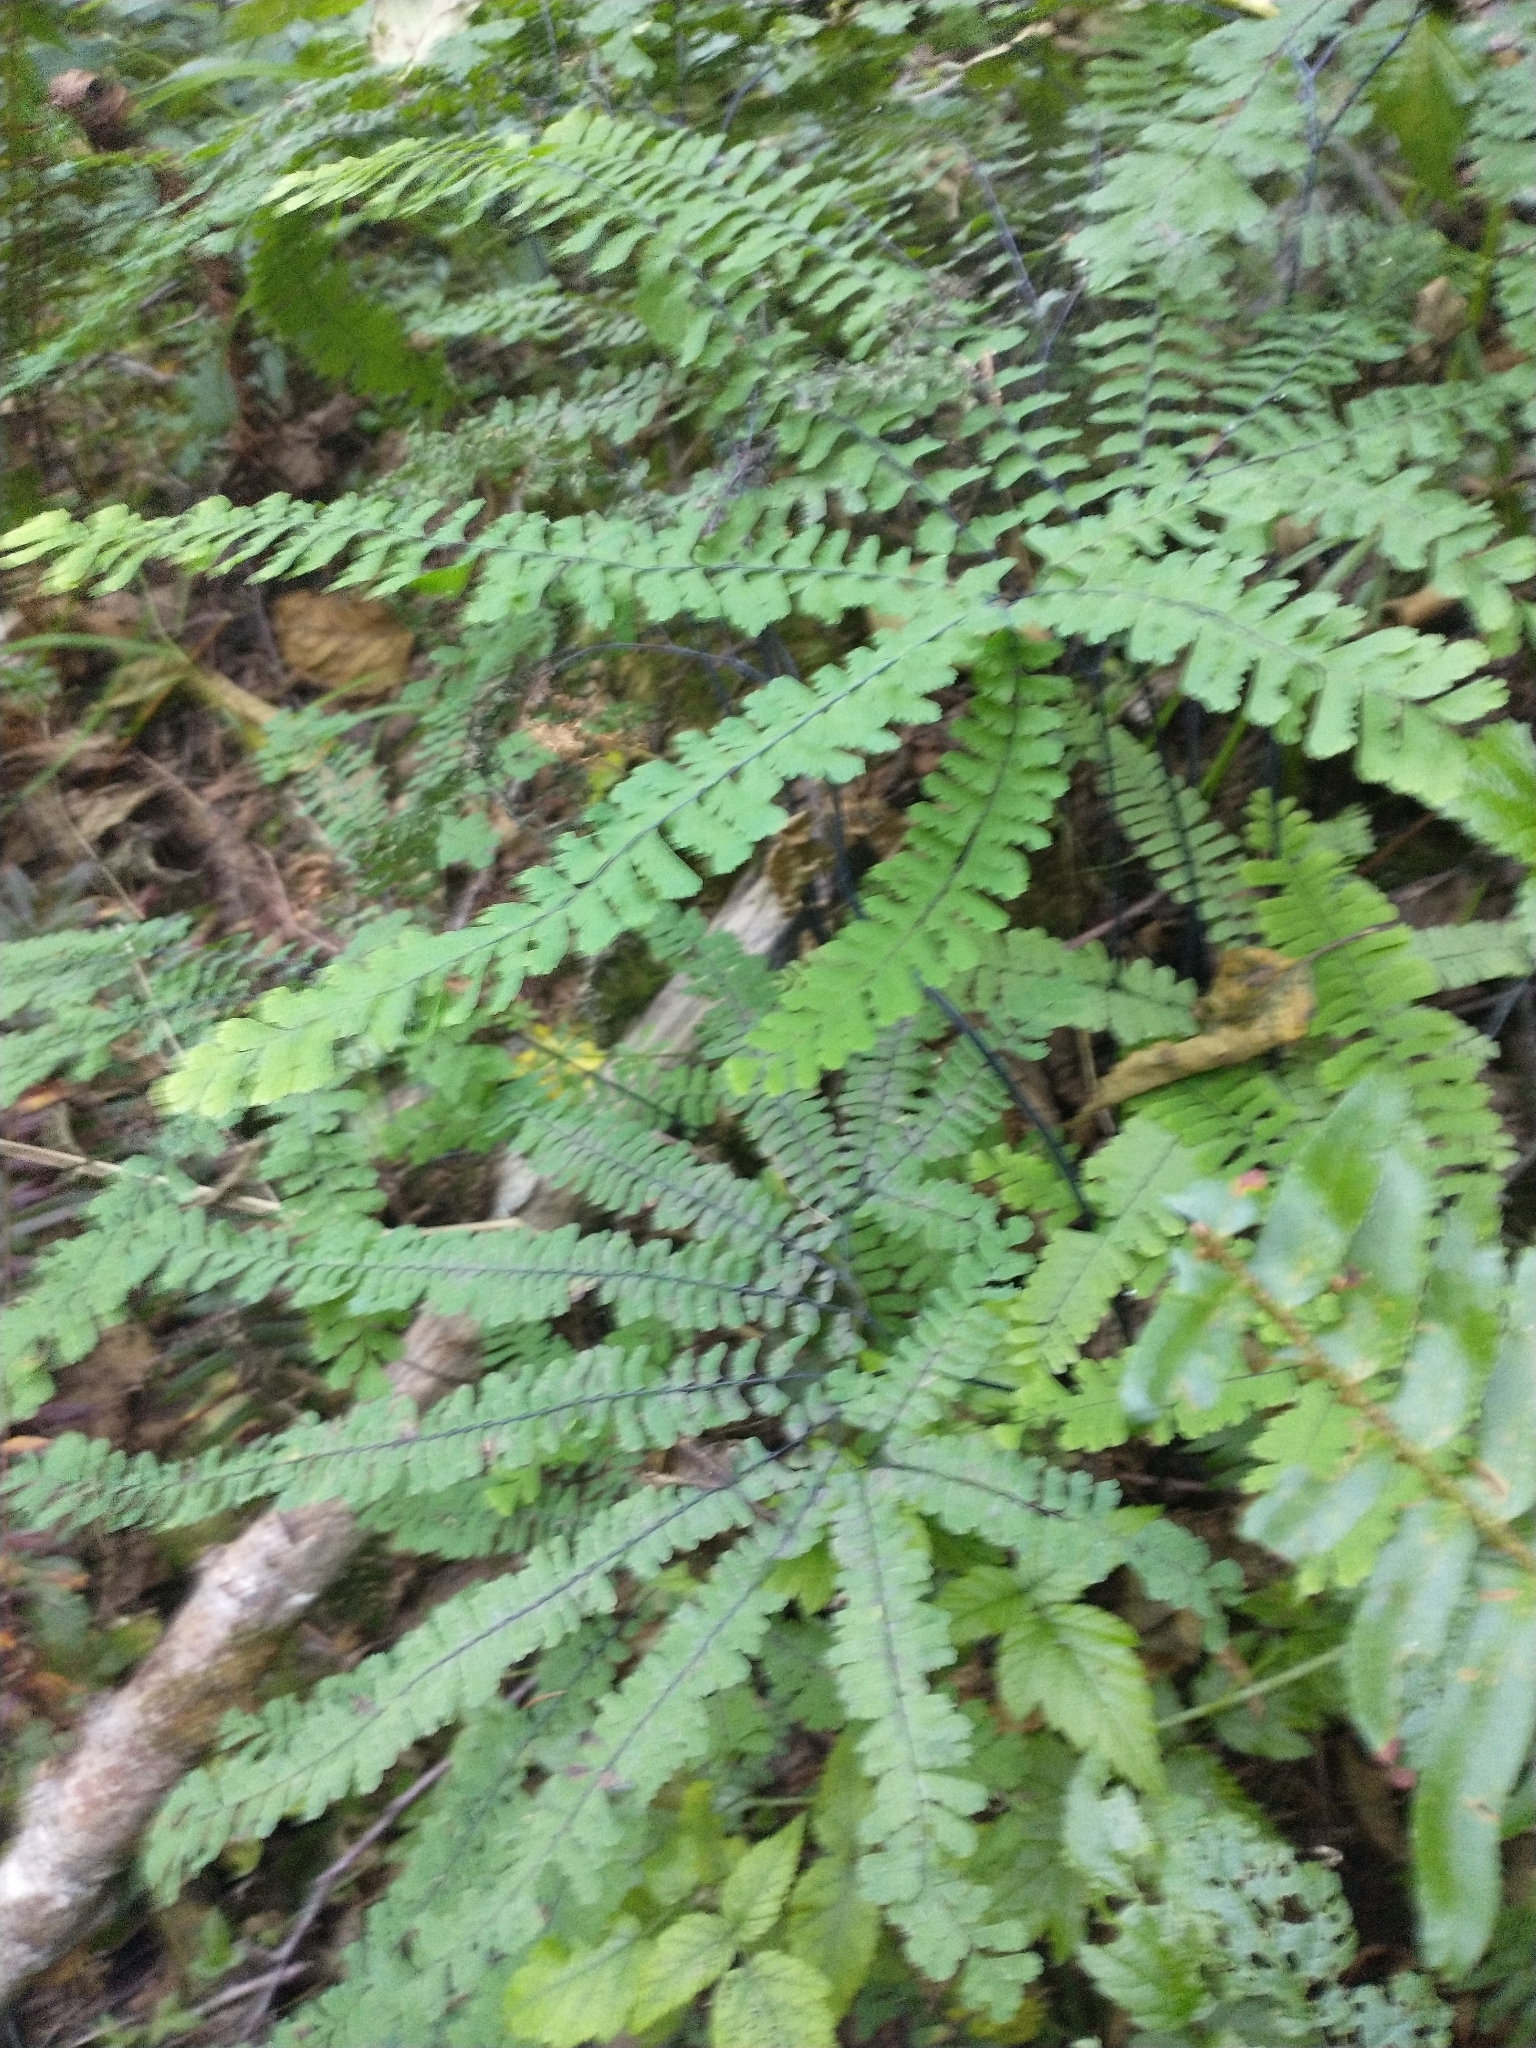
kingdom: Plantae
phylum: Tracheophyta
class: Polypodiopsida
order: Polypodiales
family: Pteridaceae
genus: Adiantum
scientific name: Adiantum aleuticum
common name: Aleutian maidenhair fern
